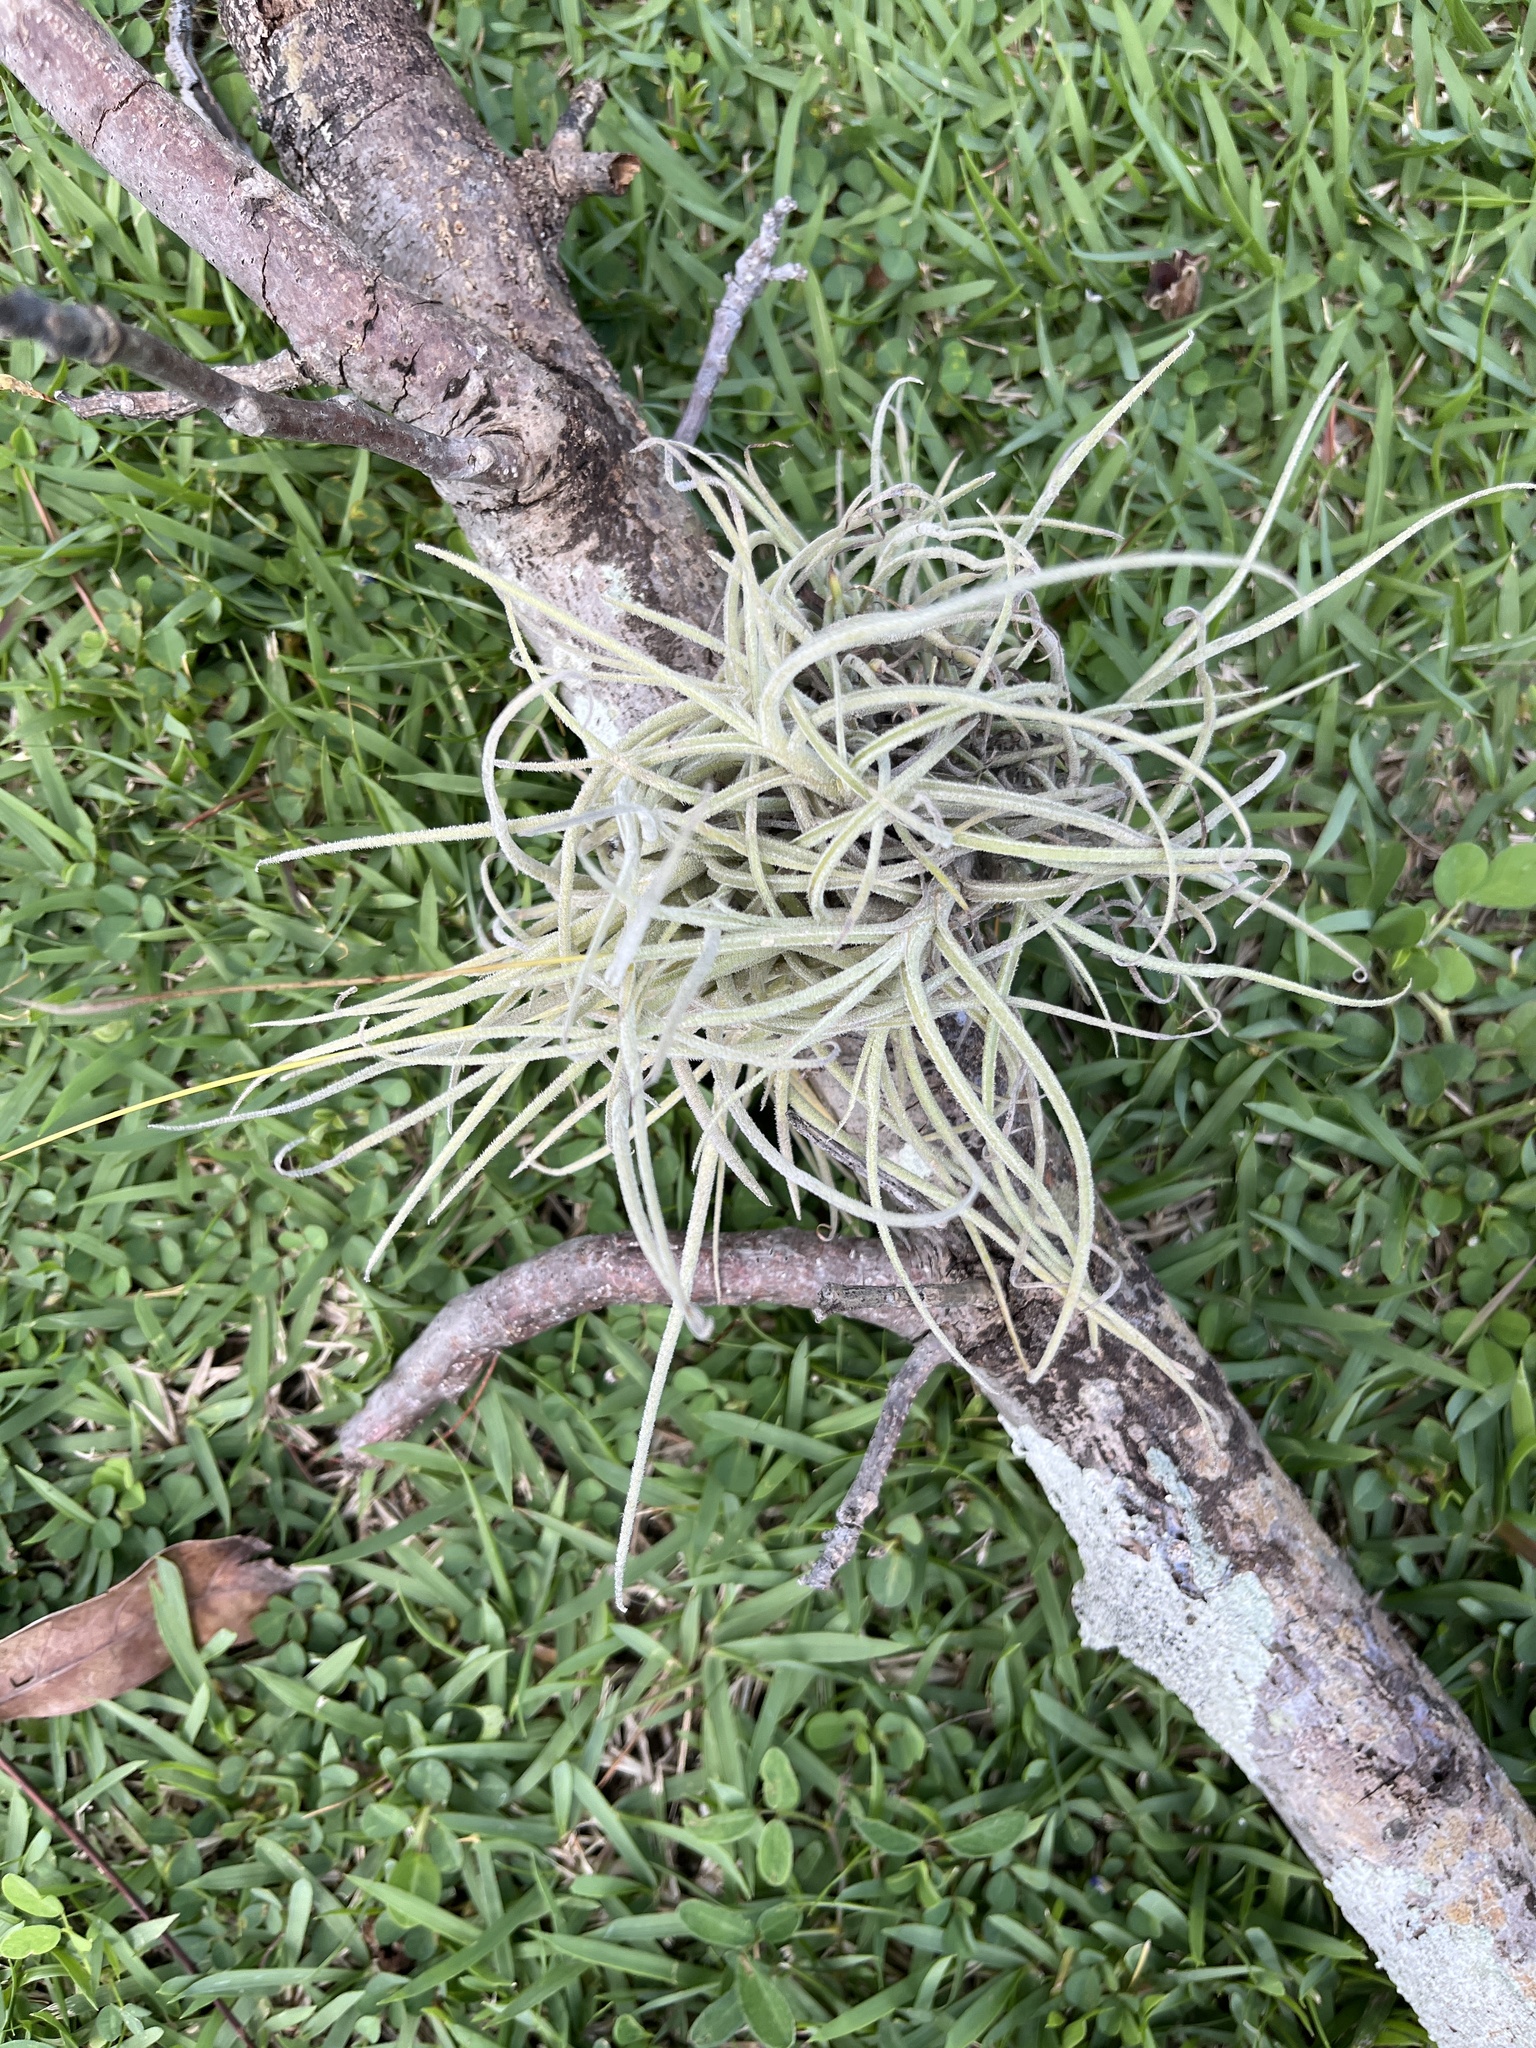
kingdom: Plantae
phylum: Tracheophyta
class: Liliopsida
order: Poales
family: Bromeliaceae
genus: Tillandsia
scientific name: Tillandsia recurvata
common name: Small ballmoss
